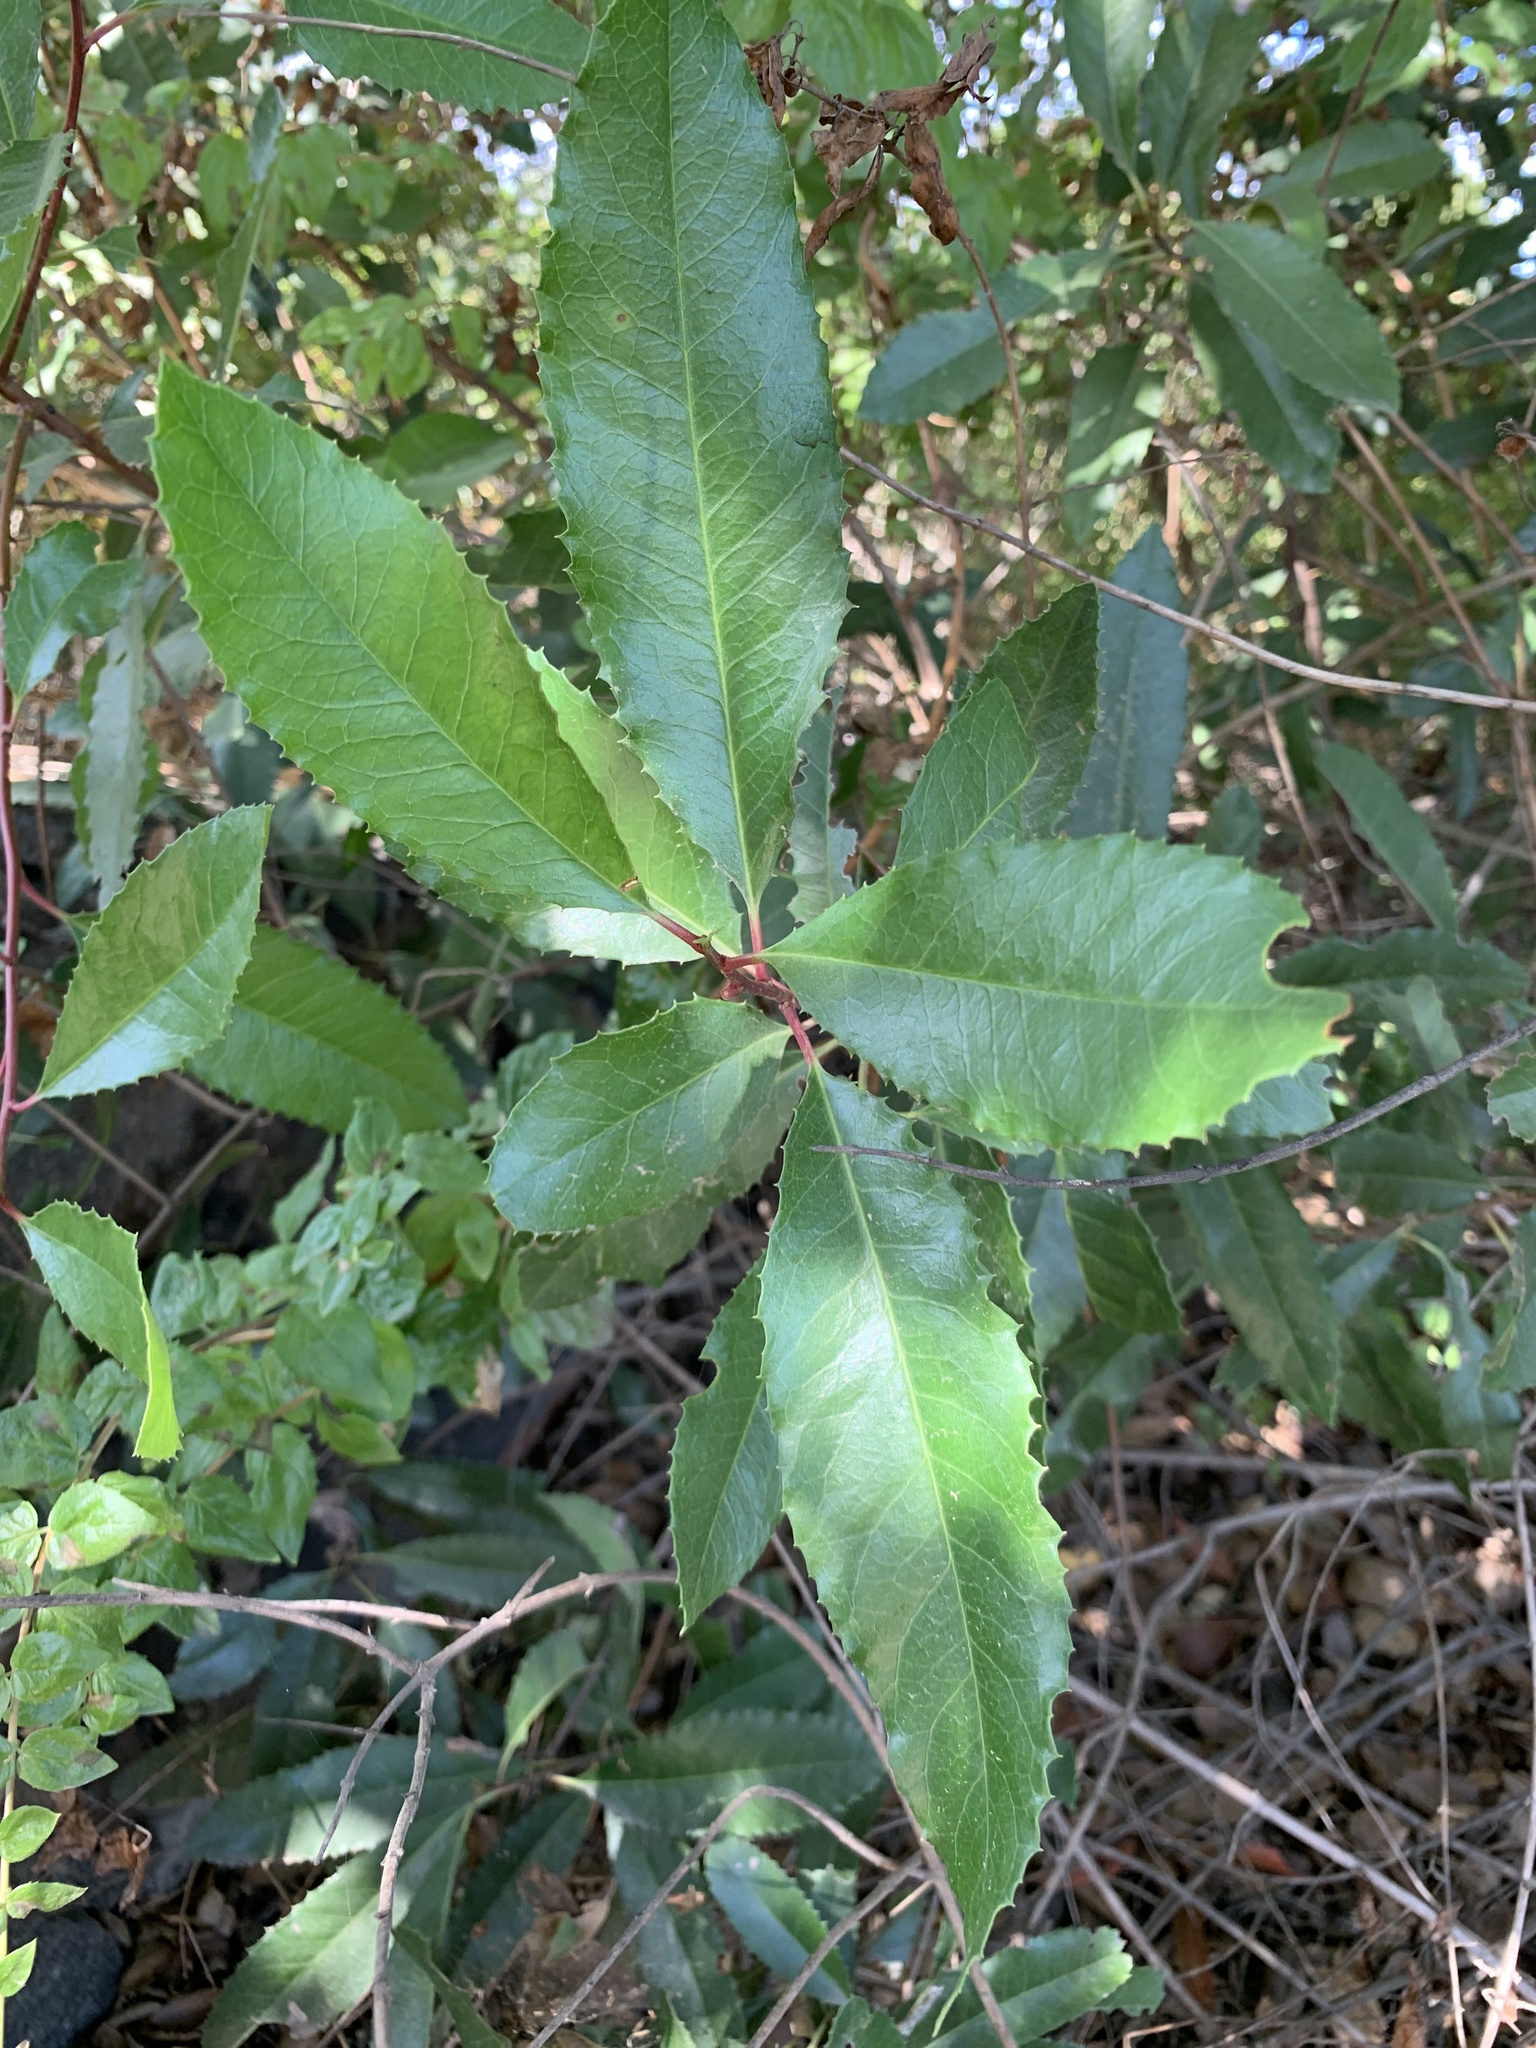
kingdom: Plantae
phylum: Tracheophyta
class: Magnoliopsida
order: Rosales
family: Rosaceae
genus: Heteromeles
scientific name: Heteromeles arbutifolia
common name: California-holly
